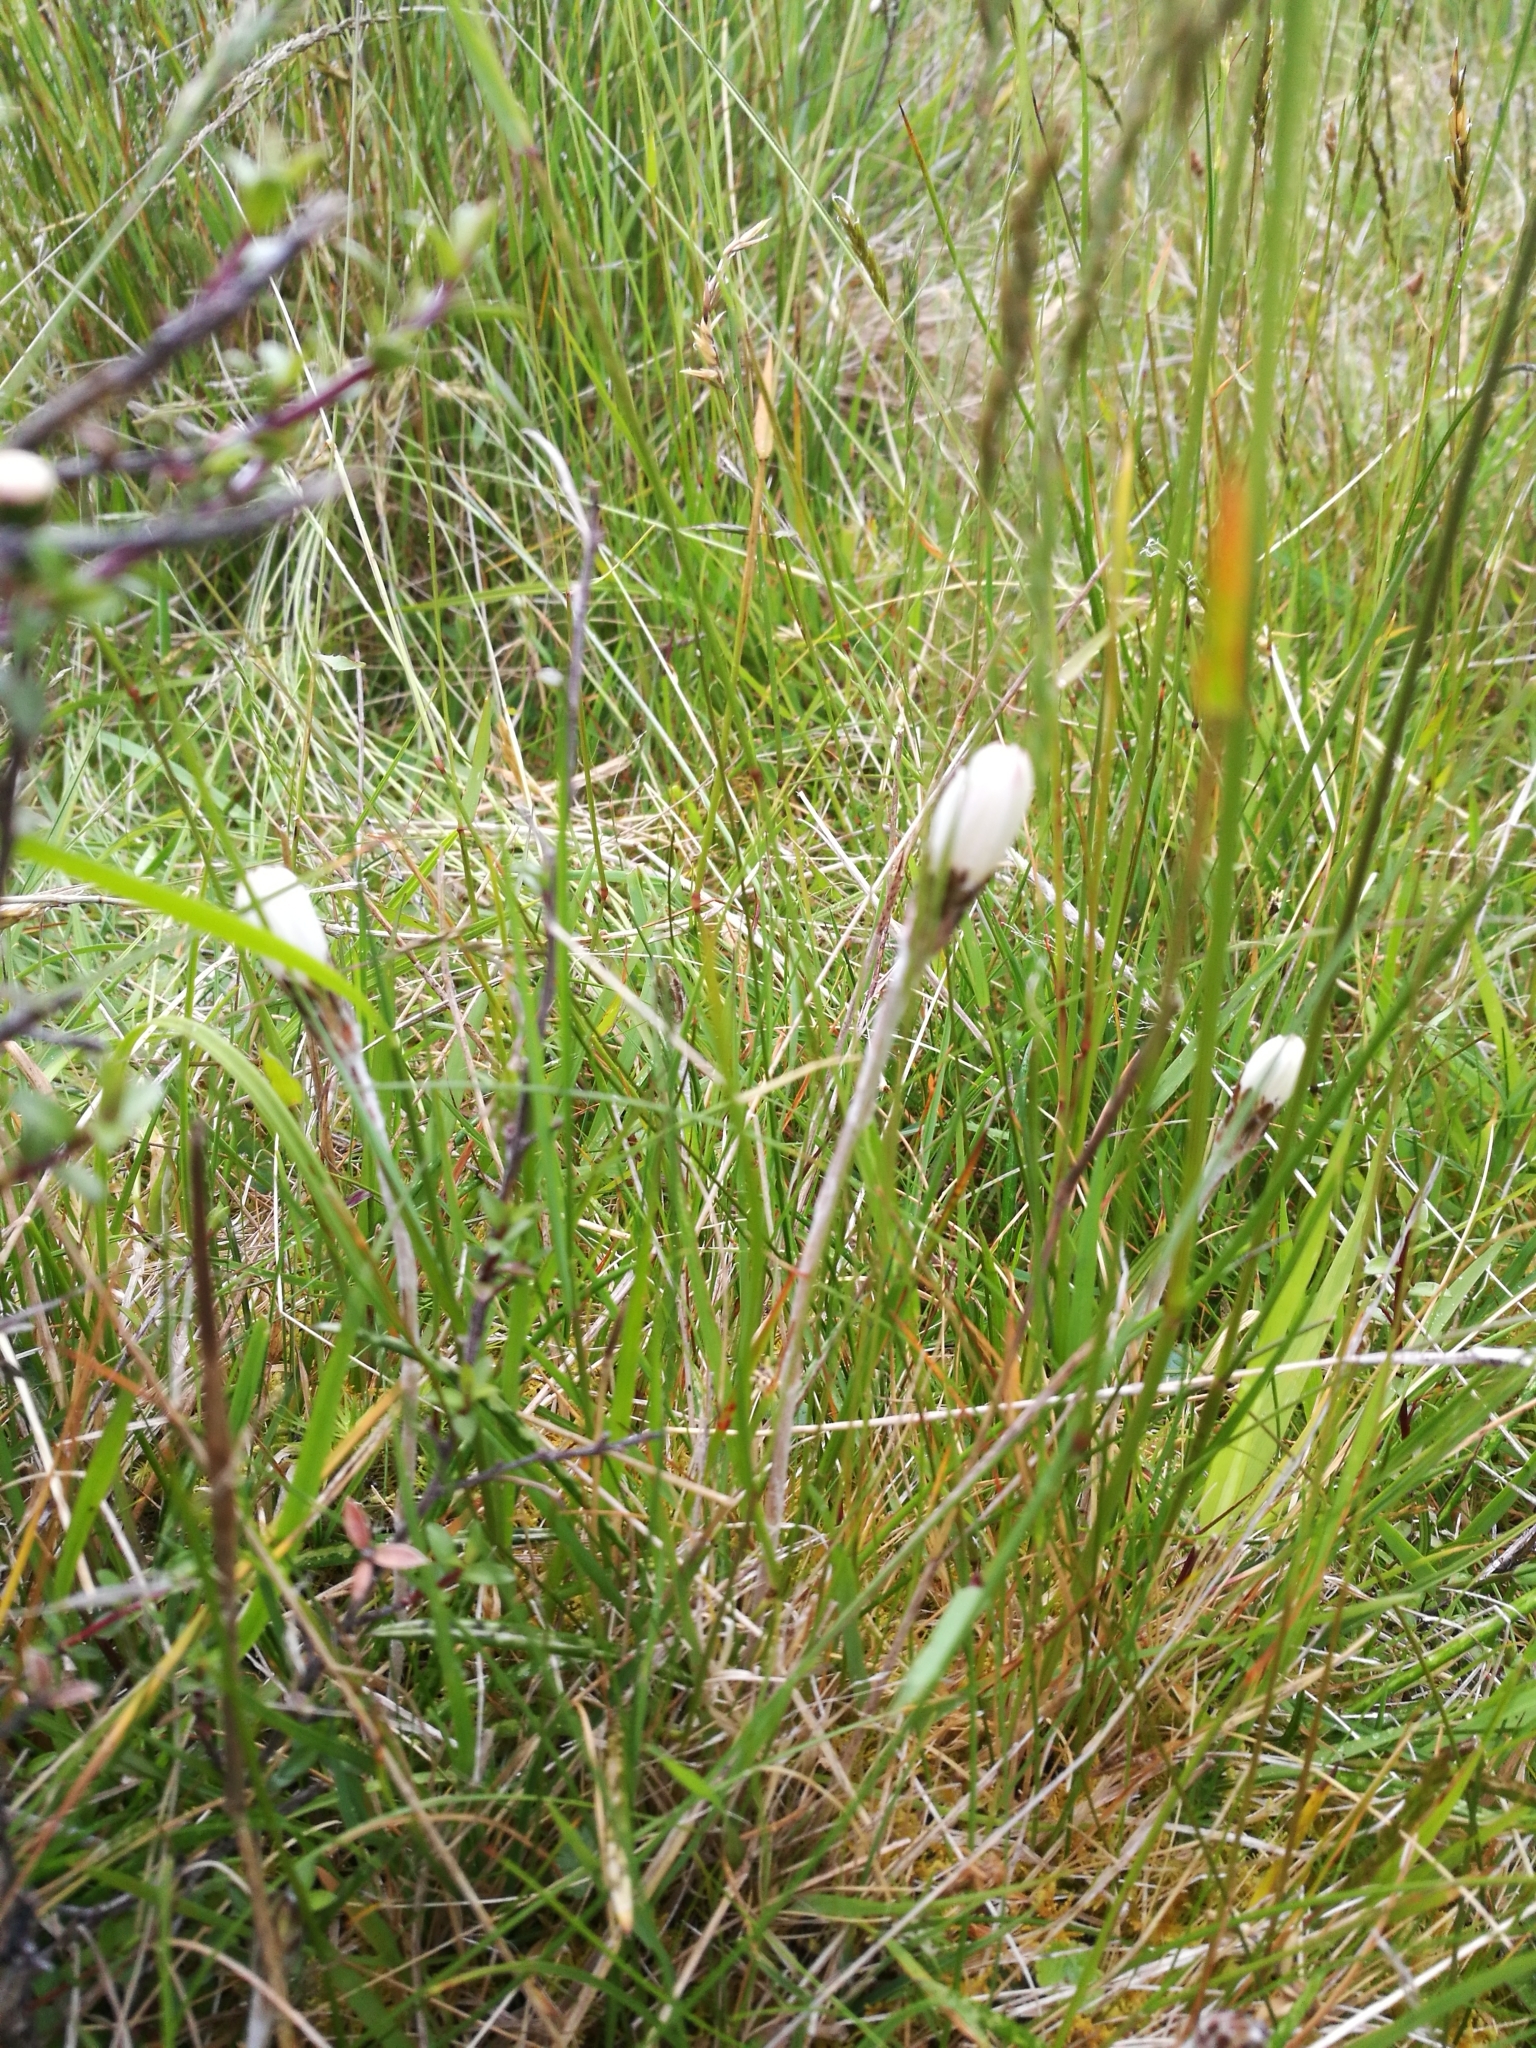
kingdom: Plantae
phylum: Tracheophyta
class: Magnoliopsida
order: Asterales
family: Asteraceae
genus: Celmisia
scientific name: Celmisia gracilenta
